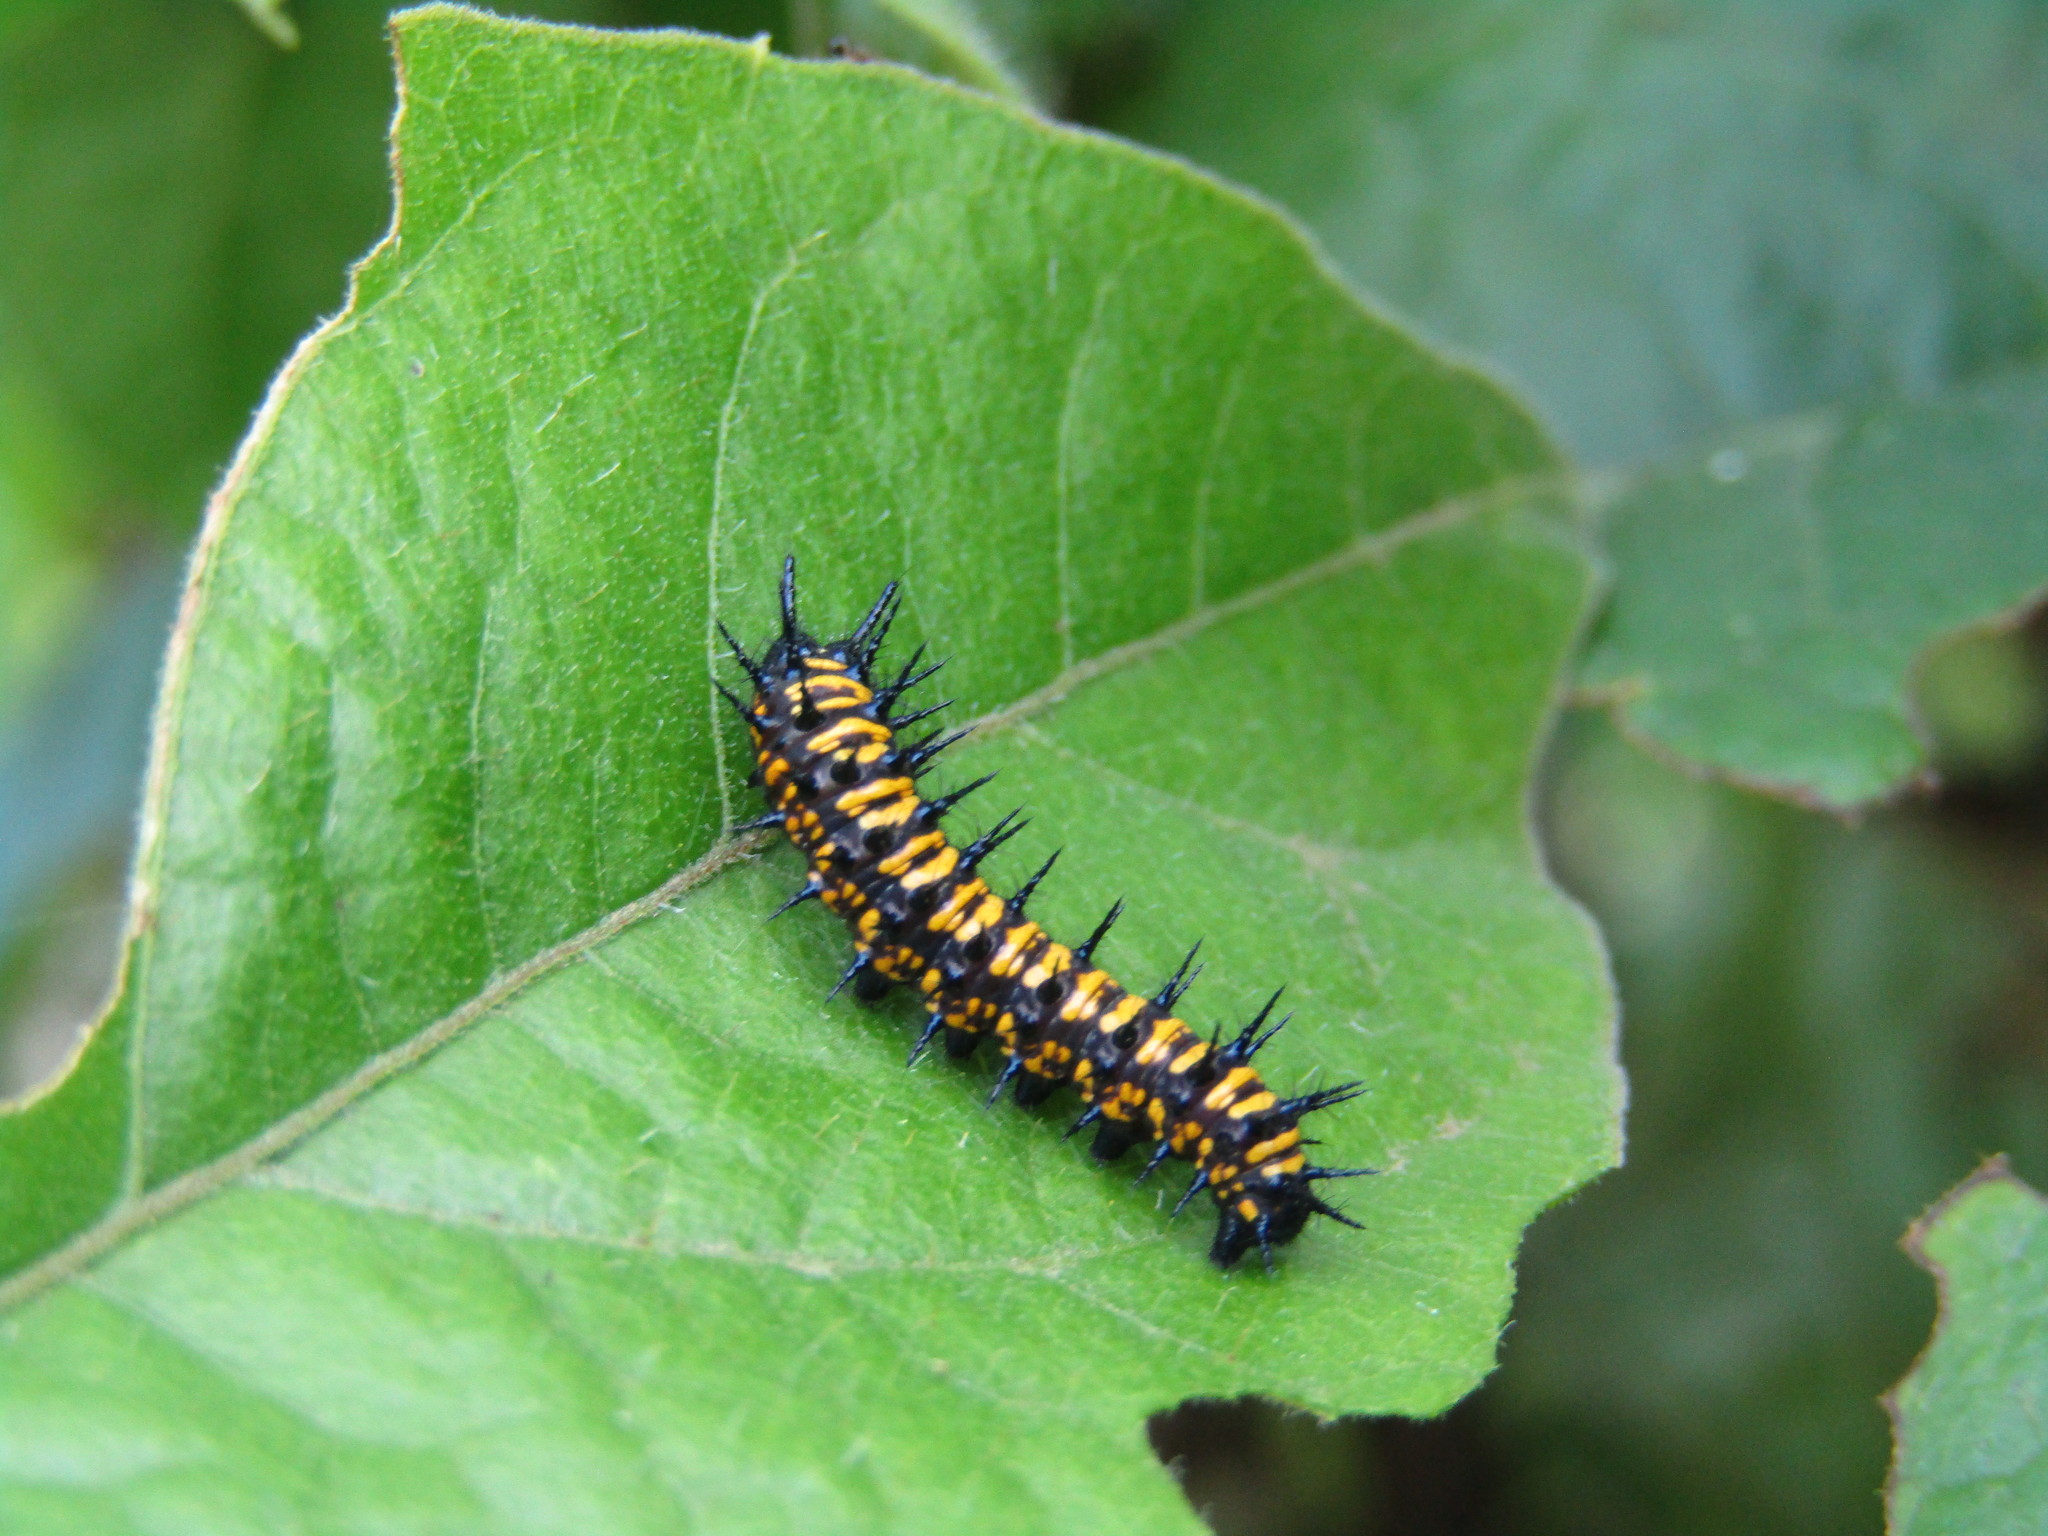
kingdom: Animalia
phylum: Arthropoda
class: Insecta
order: Lepidoptera
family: Nymphalidae
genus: Dione
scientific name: Dione moneta
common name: Mexican silverspot
